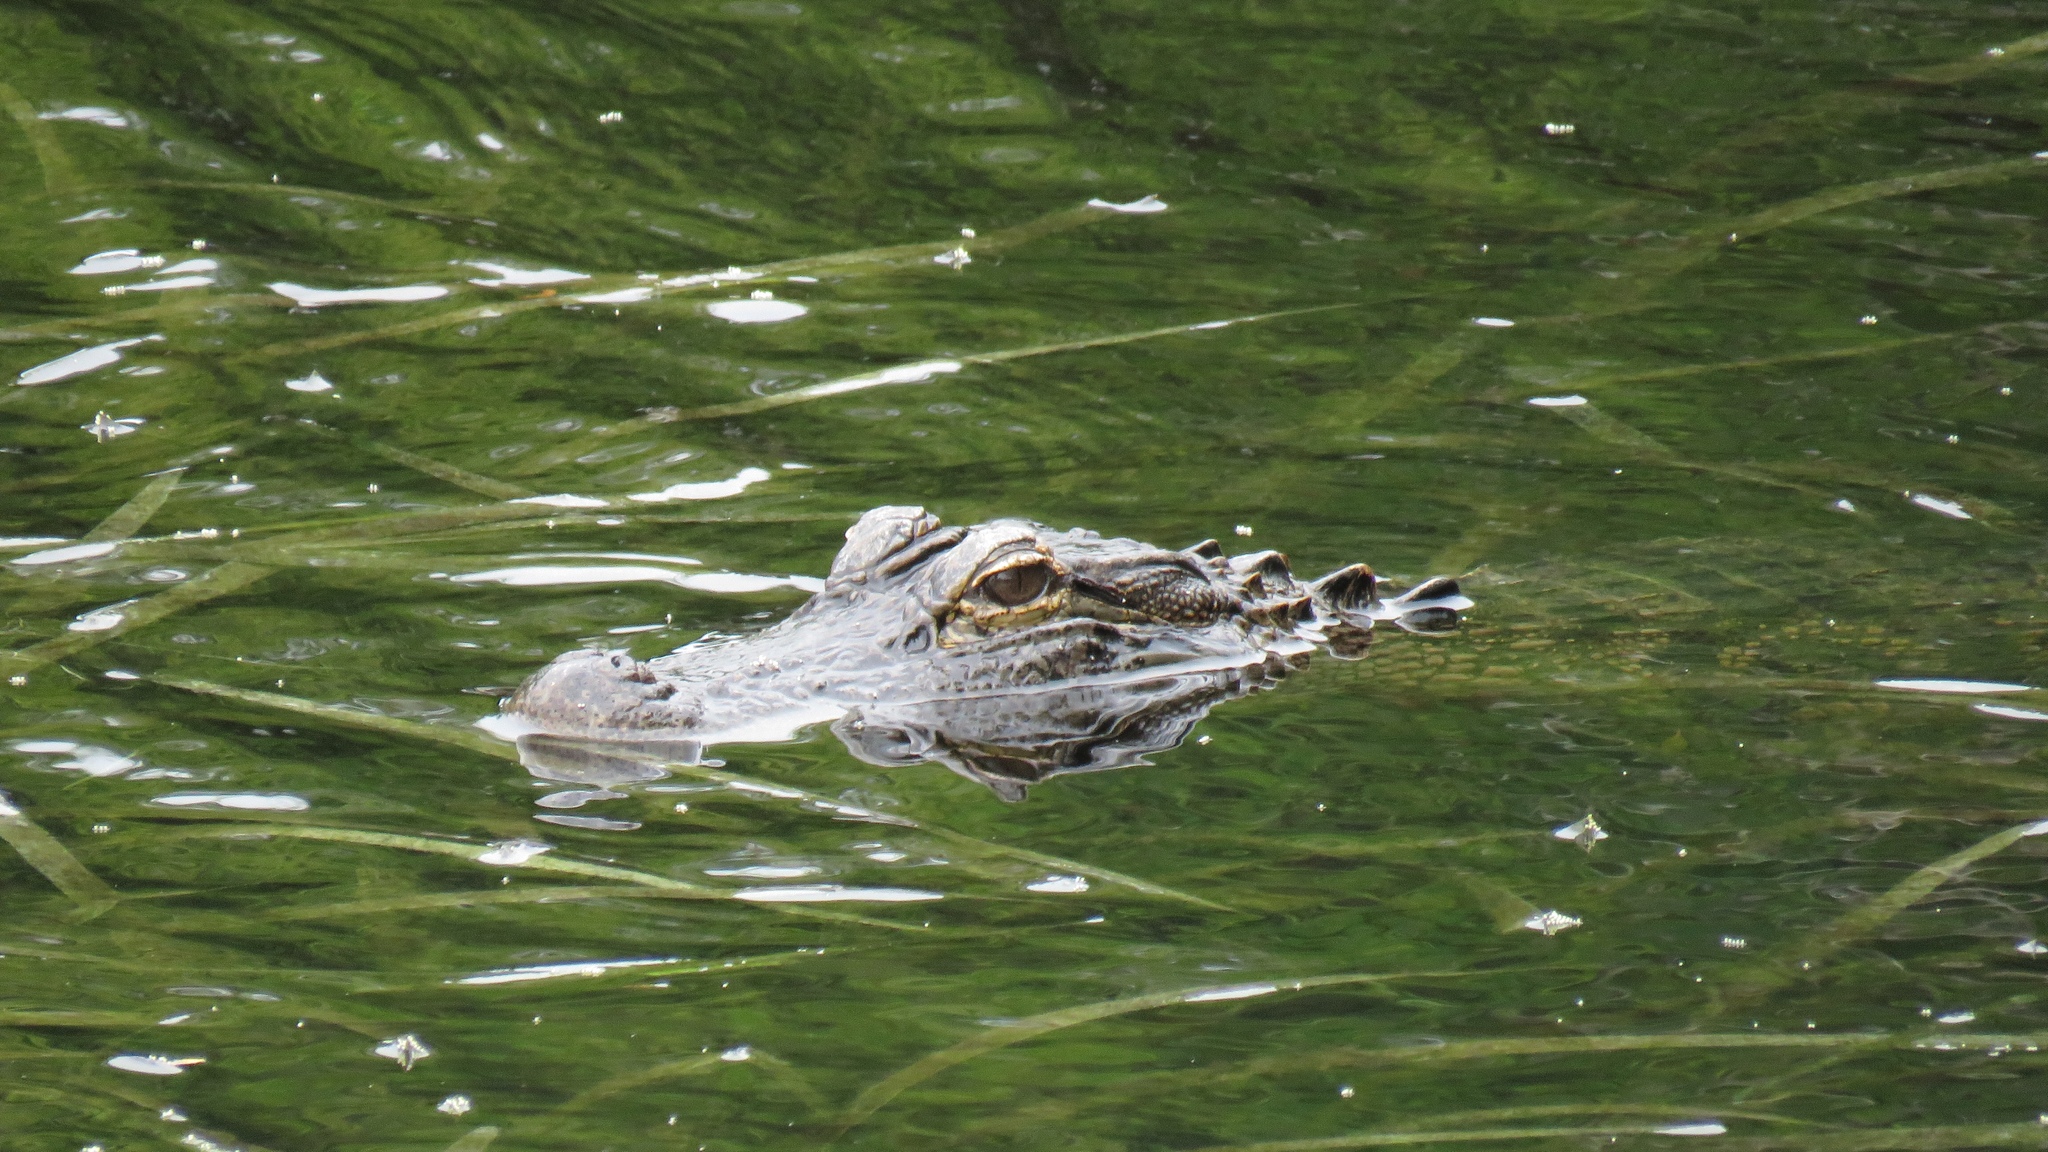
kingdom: Animalia
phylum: Chordata
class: Crocodylia
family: Alligatoridae
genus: Alligator
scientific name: Alligator mississippiensis
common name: American alligator
